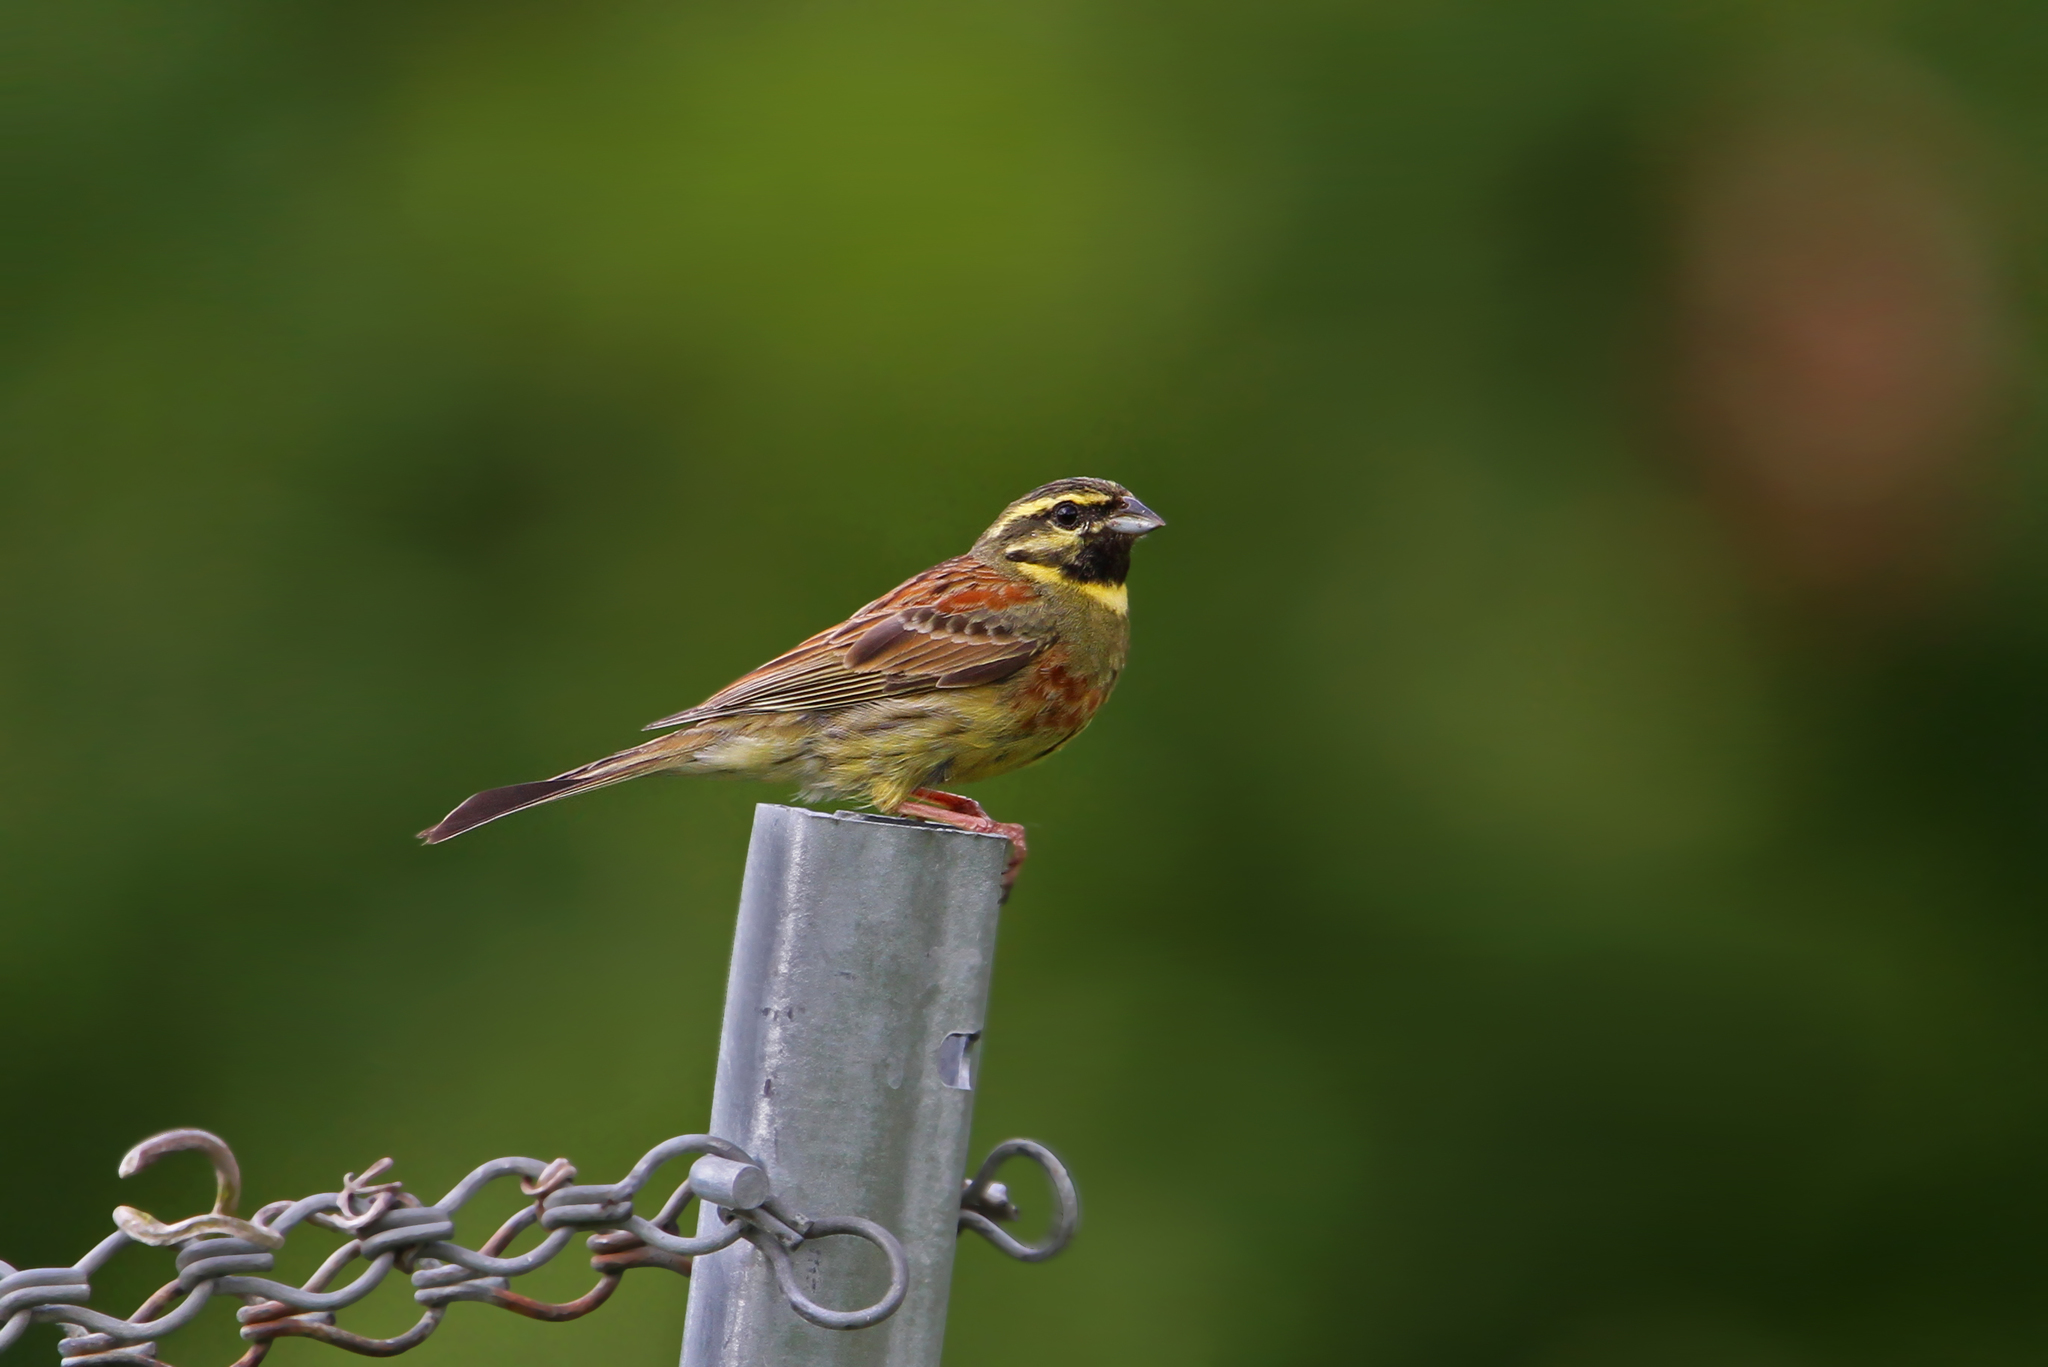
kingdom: Animalia
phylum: Chordata
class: Aves
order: Passeriformes
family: Emberizidae
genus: Emberiza
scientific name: Emberiza cirlus
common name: Cirl bunting
